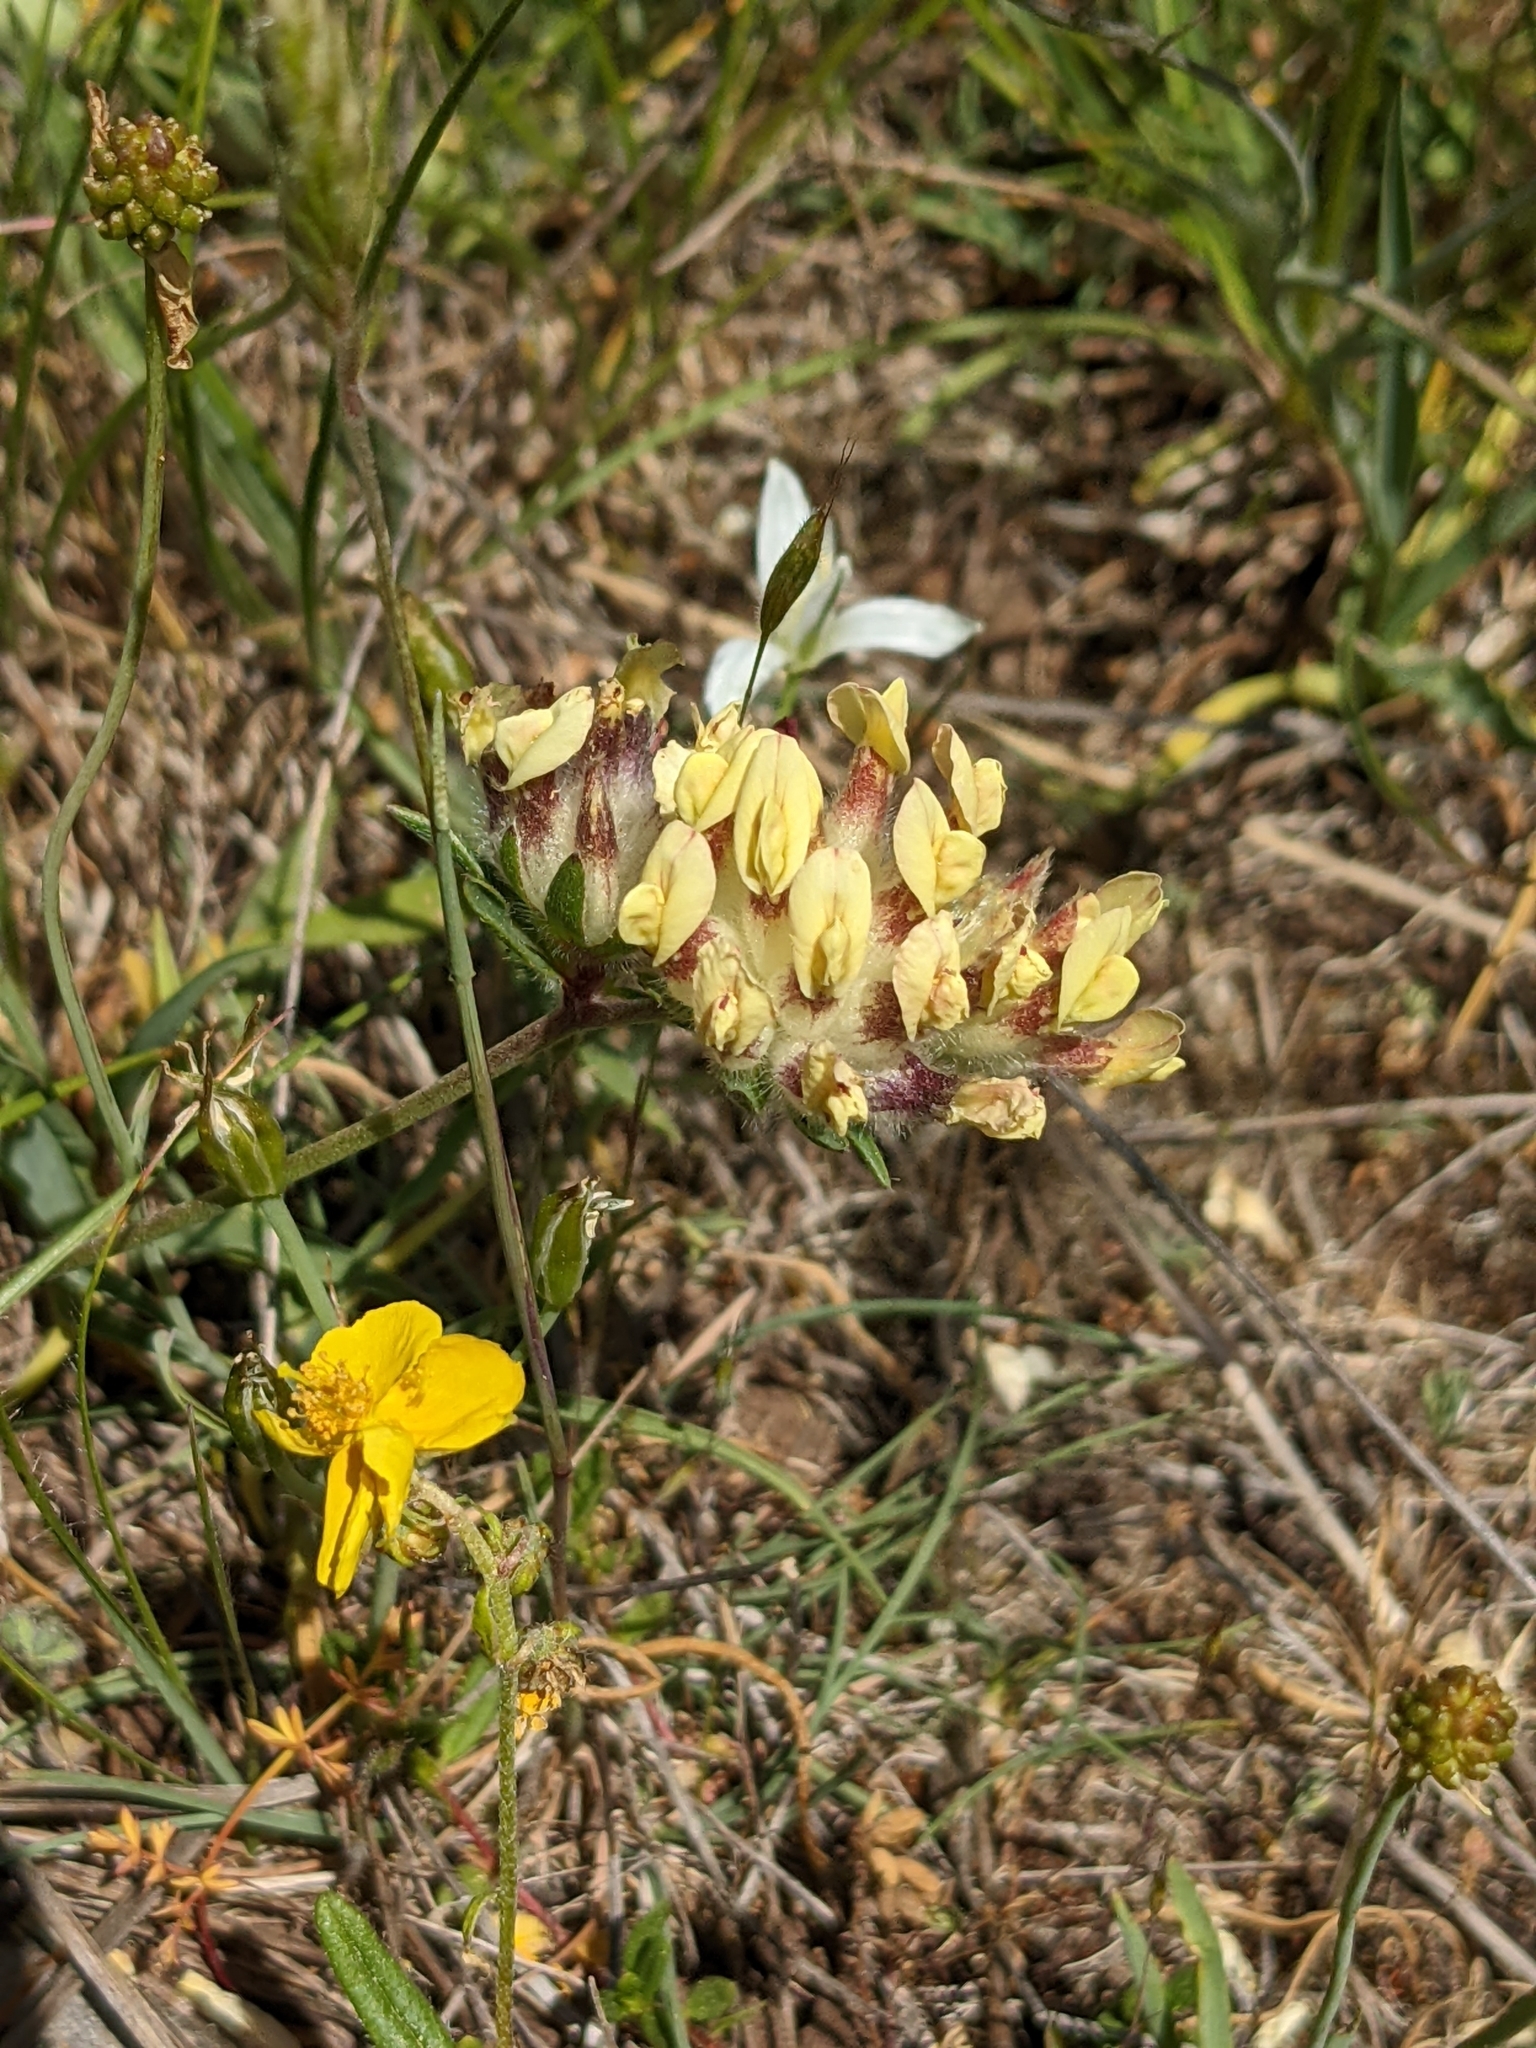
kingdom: Plantae
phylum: Tracheophyta
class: Magnoliopsida
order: Fabales
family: Fabaceae
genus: Anthyllis
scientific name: Anthyllis vulneraria
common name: Kidney vetch
